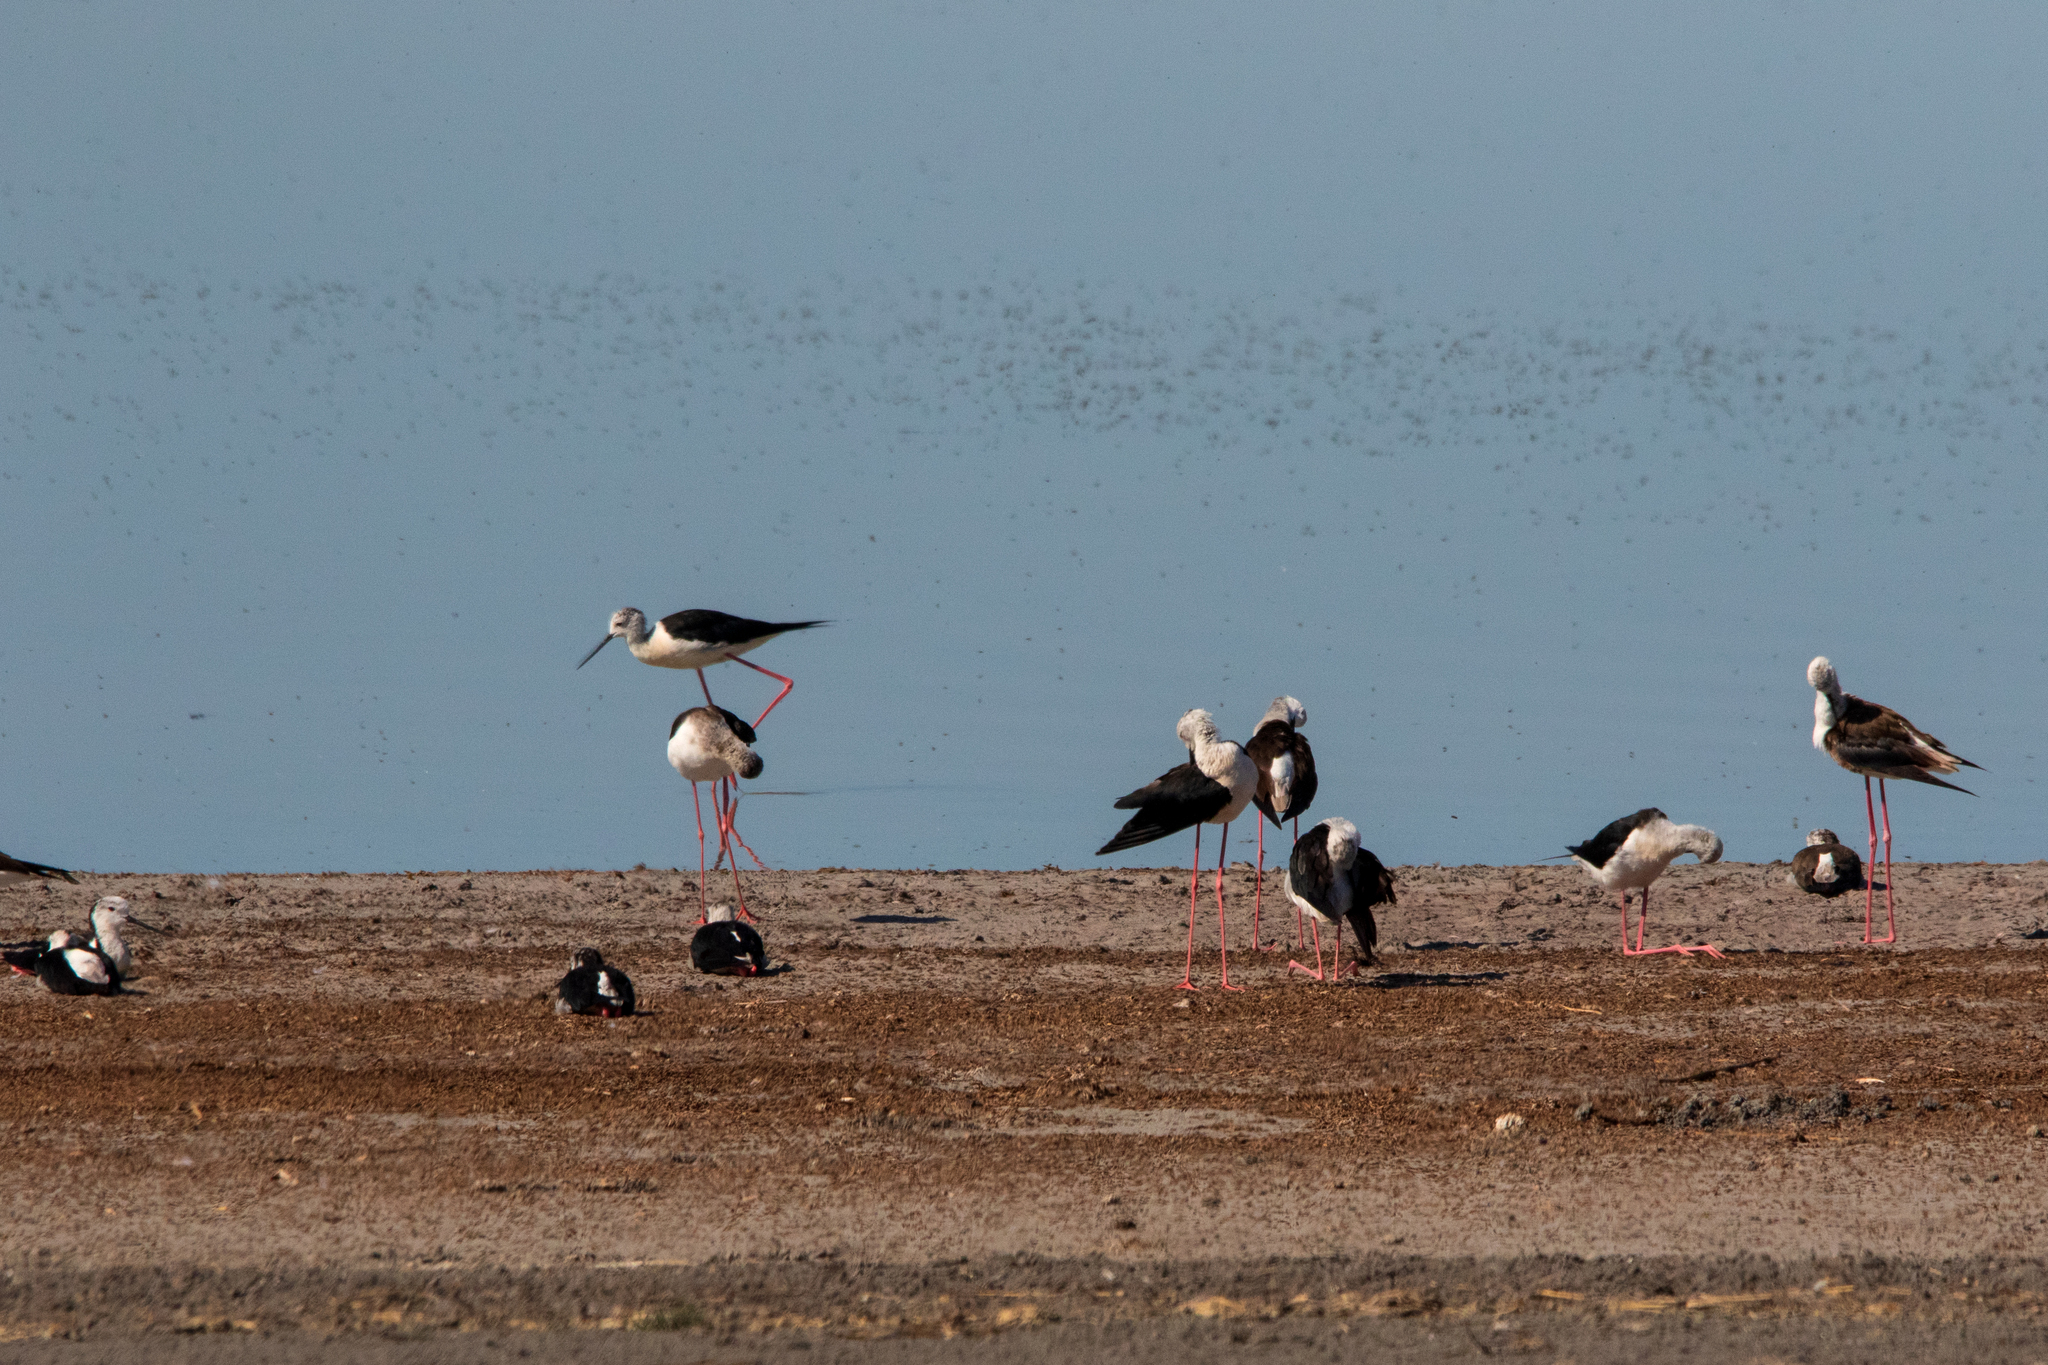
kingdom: Animalia
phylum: Chordata
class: Aves
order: Charadriiformes
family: Recurvirostridae
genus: Himantopus
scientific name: Himantopus himantopus
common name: Black-winged stilt
